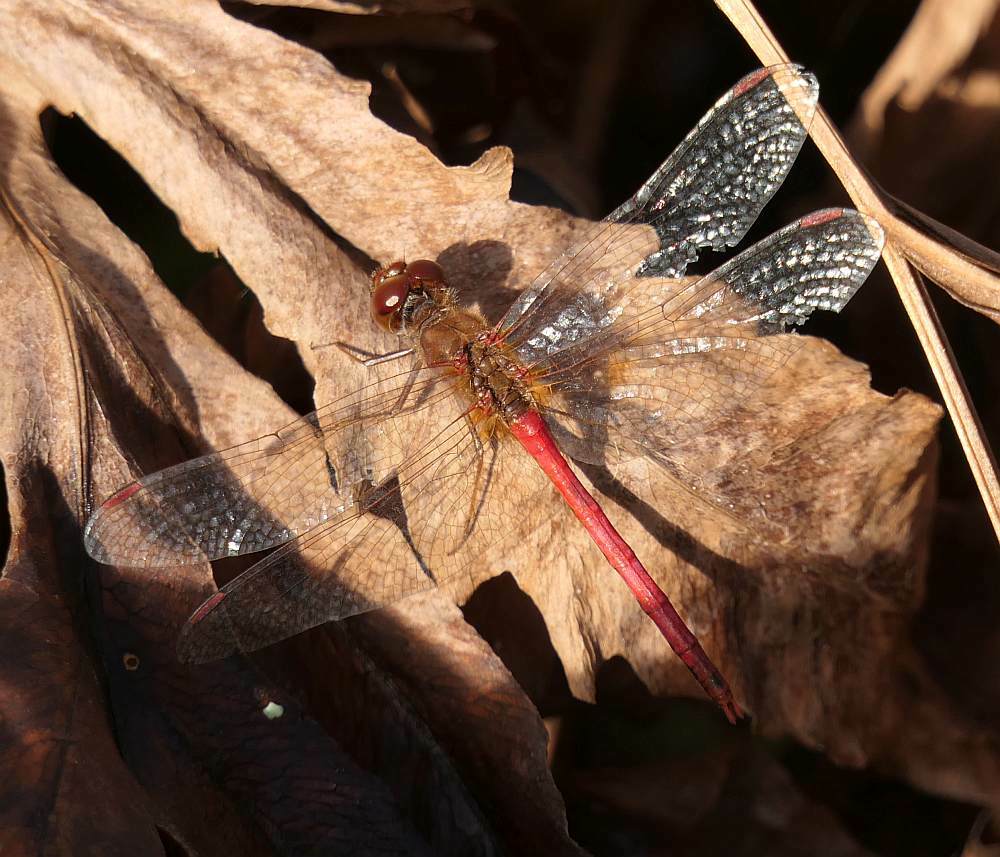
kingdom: Animalia
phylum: Arthropoda
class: Insecta
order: Odonata
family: Libellulidae
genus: Sympetrum
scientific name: Sympetrum vicinum
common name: Autumn meadowhawk
